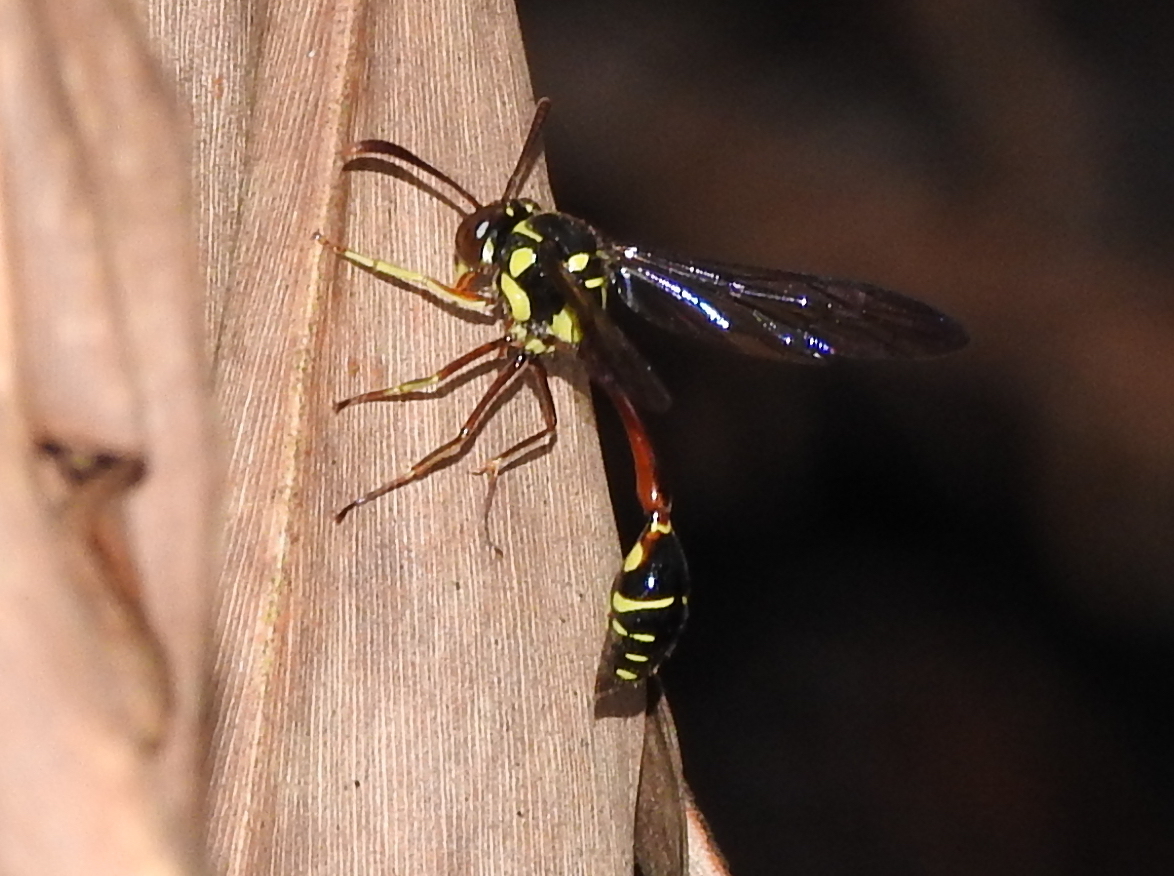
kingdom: Animalia
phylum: Arthropoda
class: Insecta
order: Hymenoptera
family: Vespidae
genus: Eustenogaster
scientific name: Eustenogaster micans
